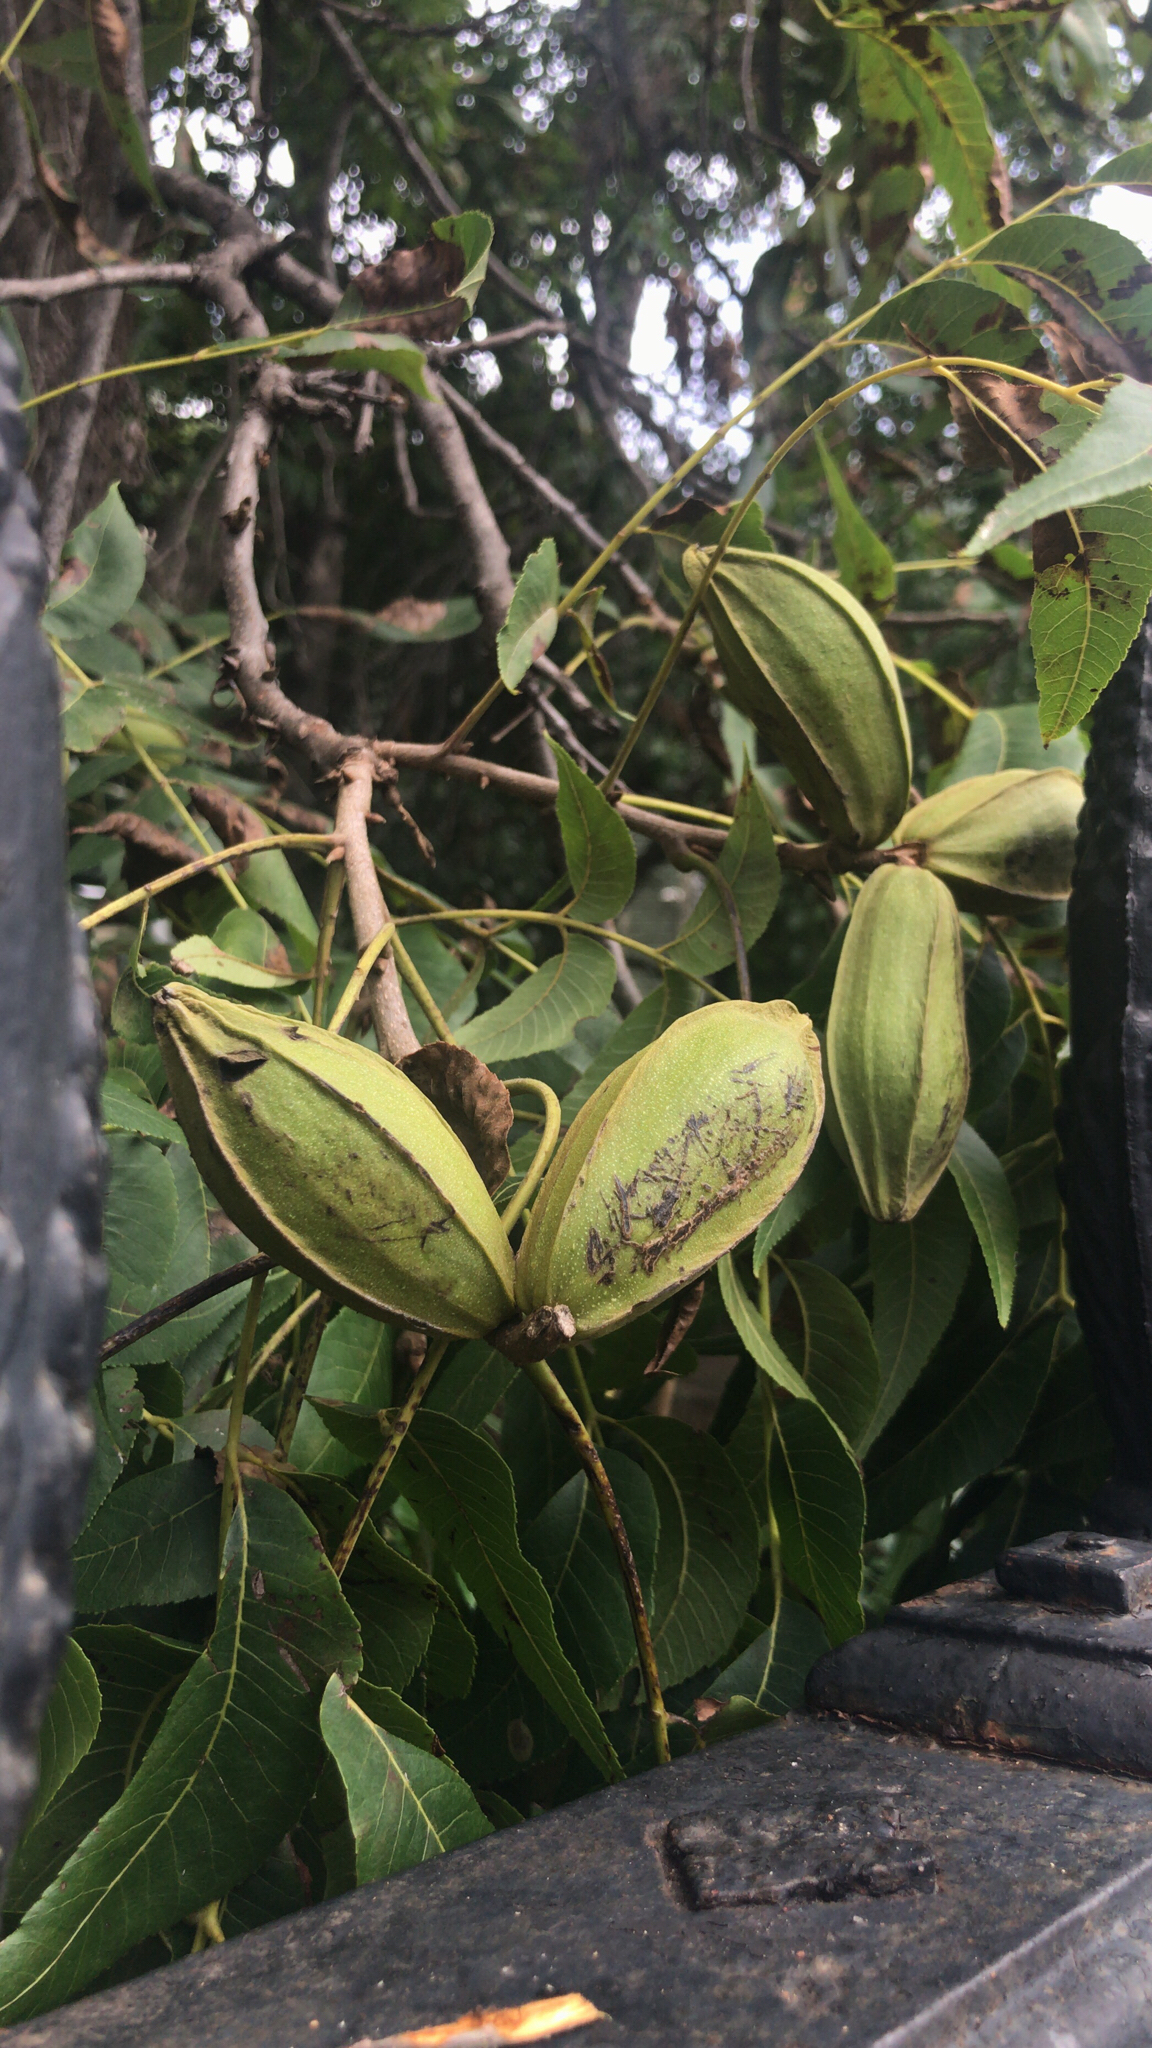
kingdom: Plantae
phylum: Tracheophyta
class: Magnoliopsida
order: Fagales
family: Juglandaceae
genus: Carya
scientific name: Carya illinoinensis
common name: Pecan
